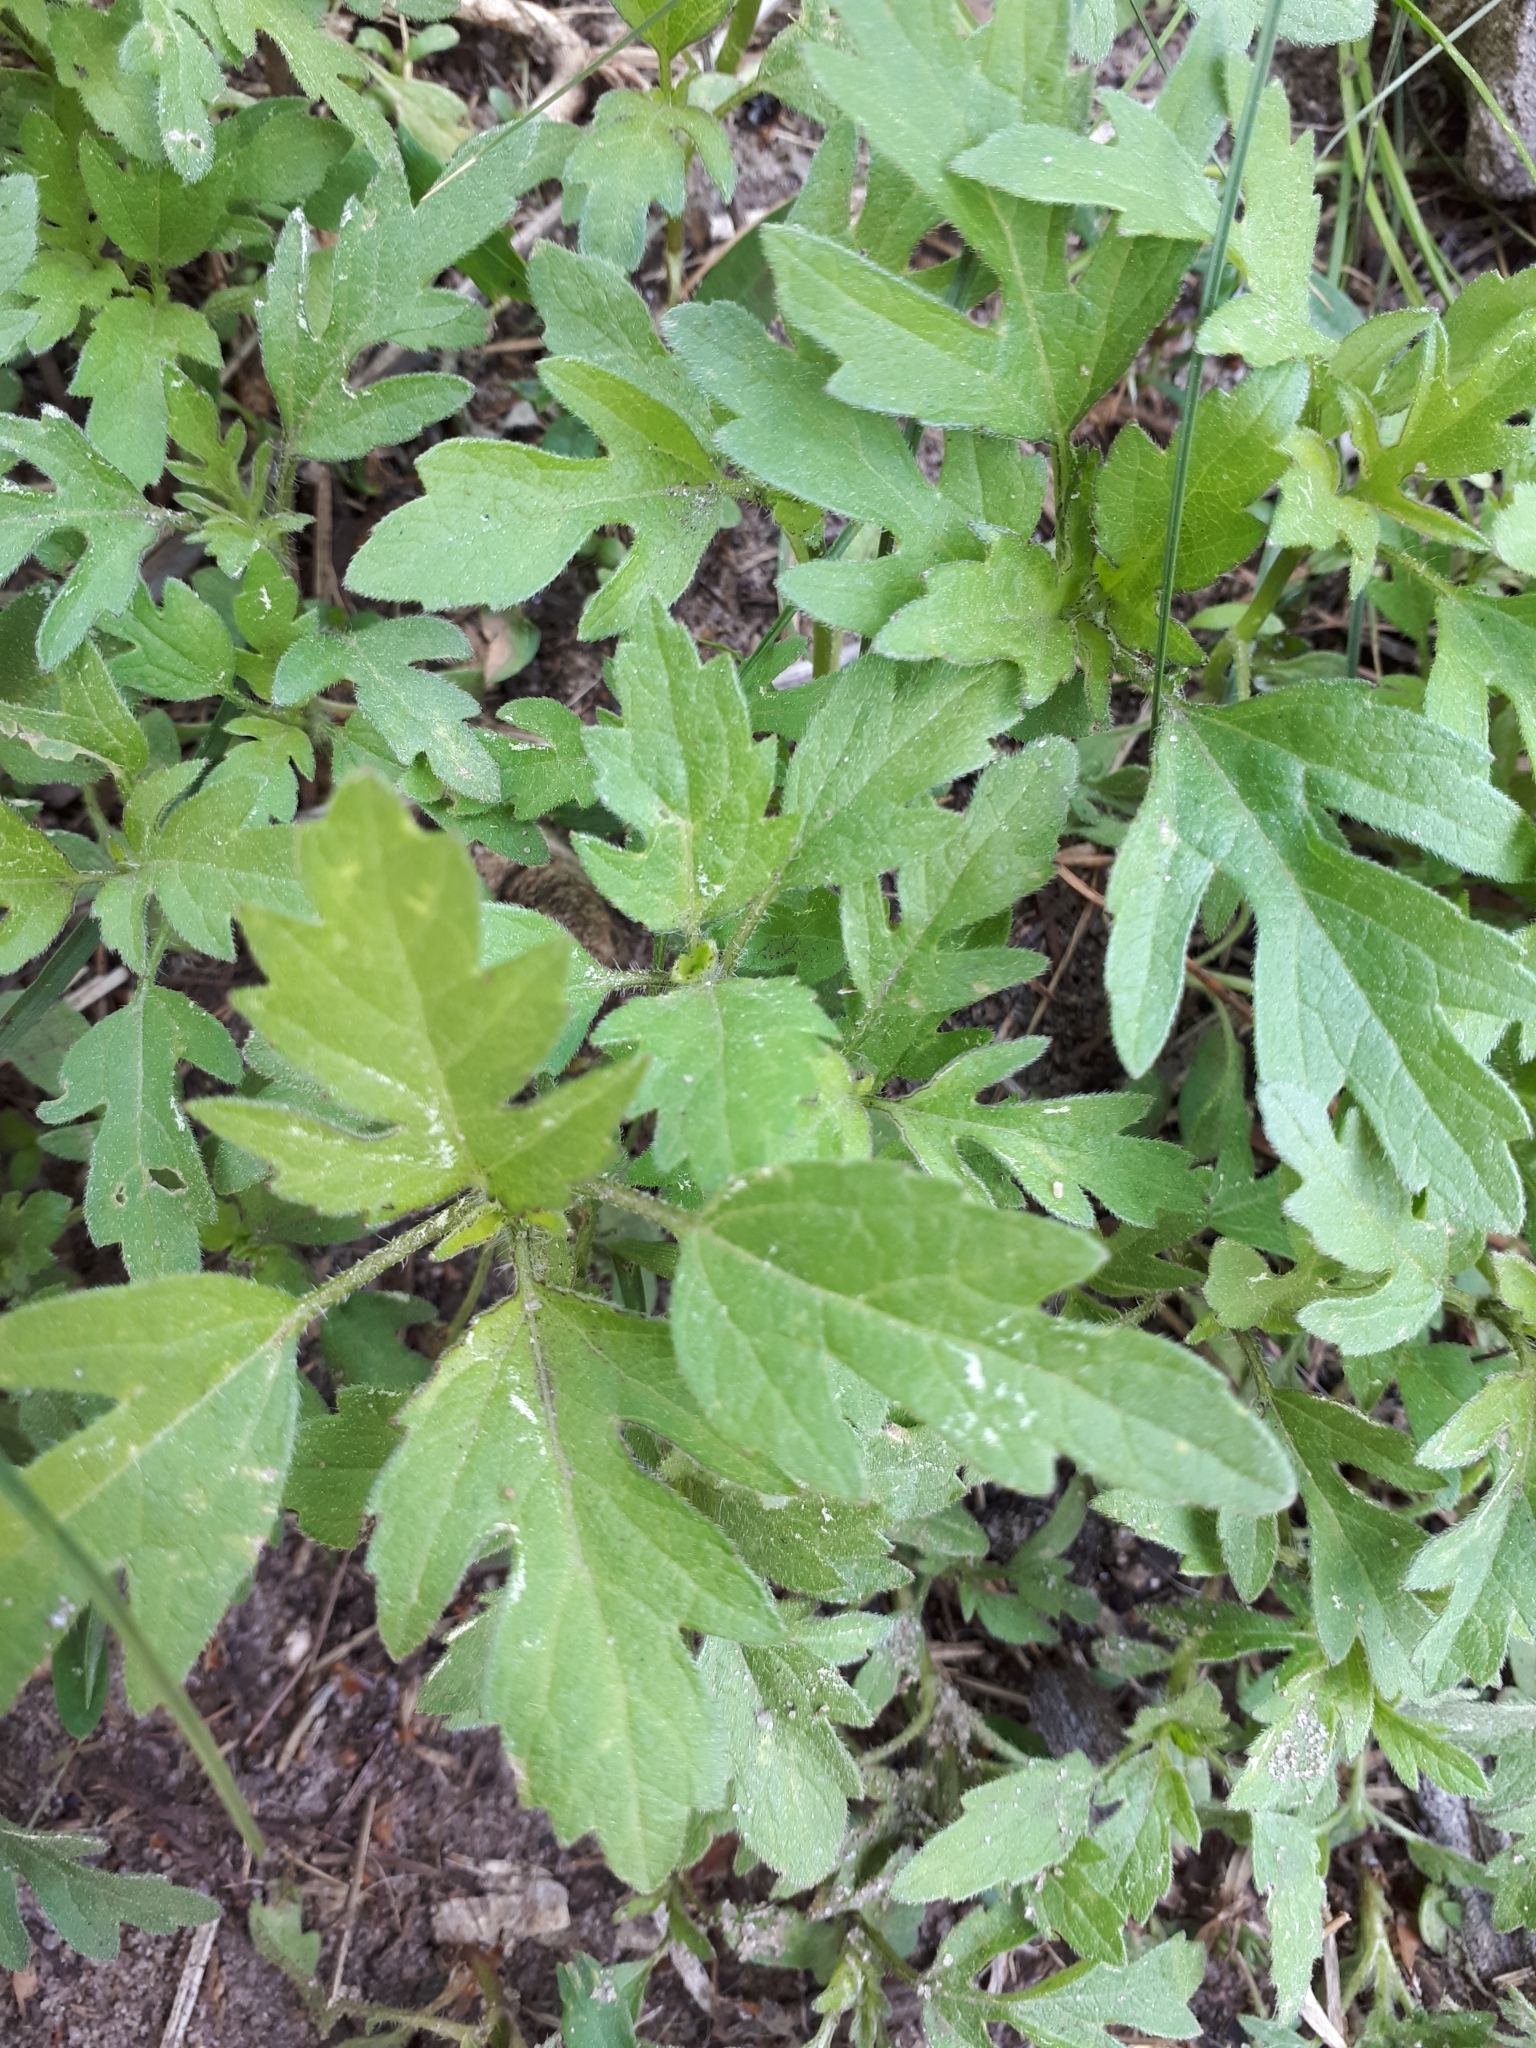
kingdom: Plantae
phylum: Tracheophyta
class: Magnoliopsida
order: Asterales
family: Asteraceae
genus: Ambrosia
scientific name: Ambrosia artemisiifolia
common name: Annual ragweed
